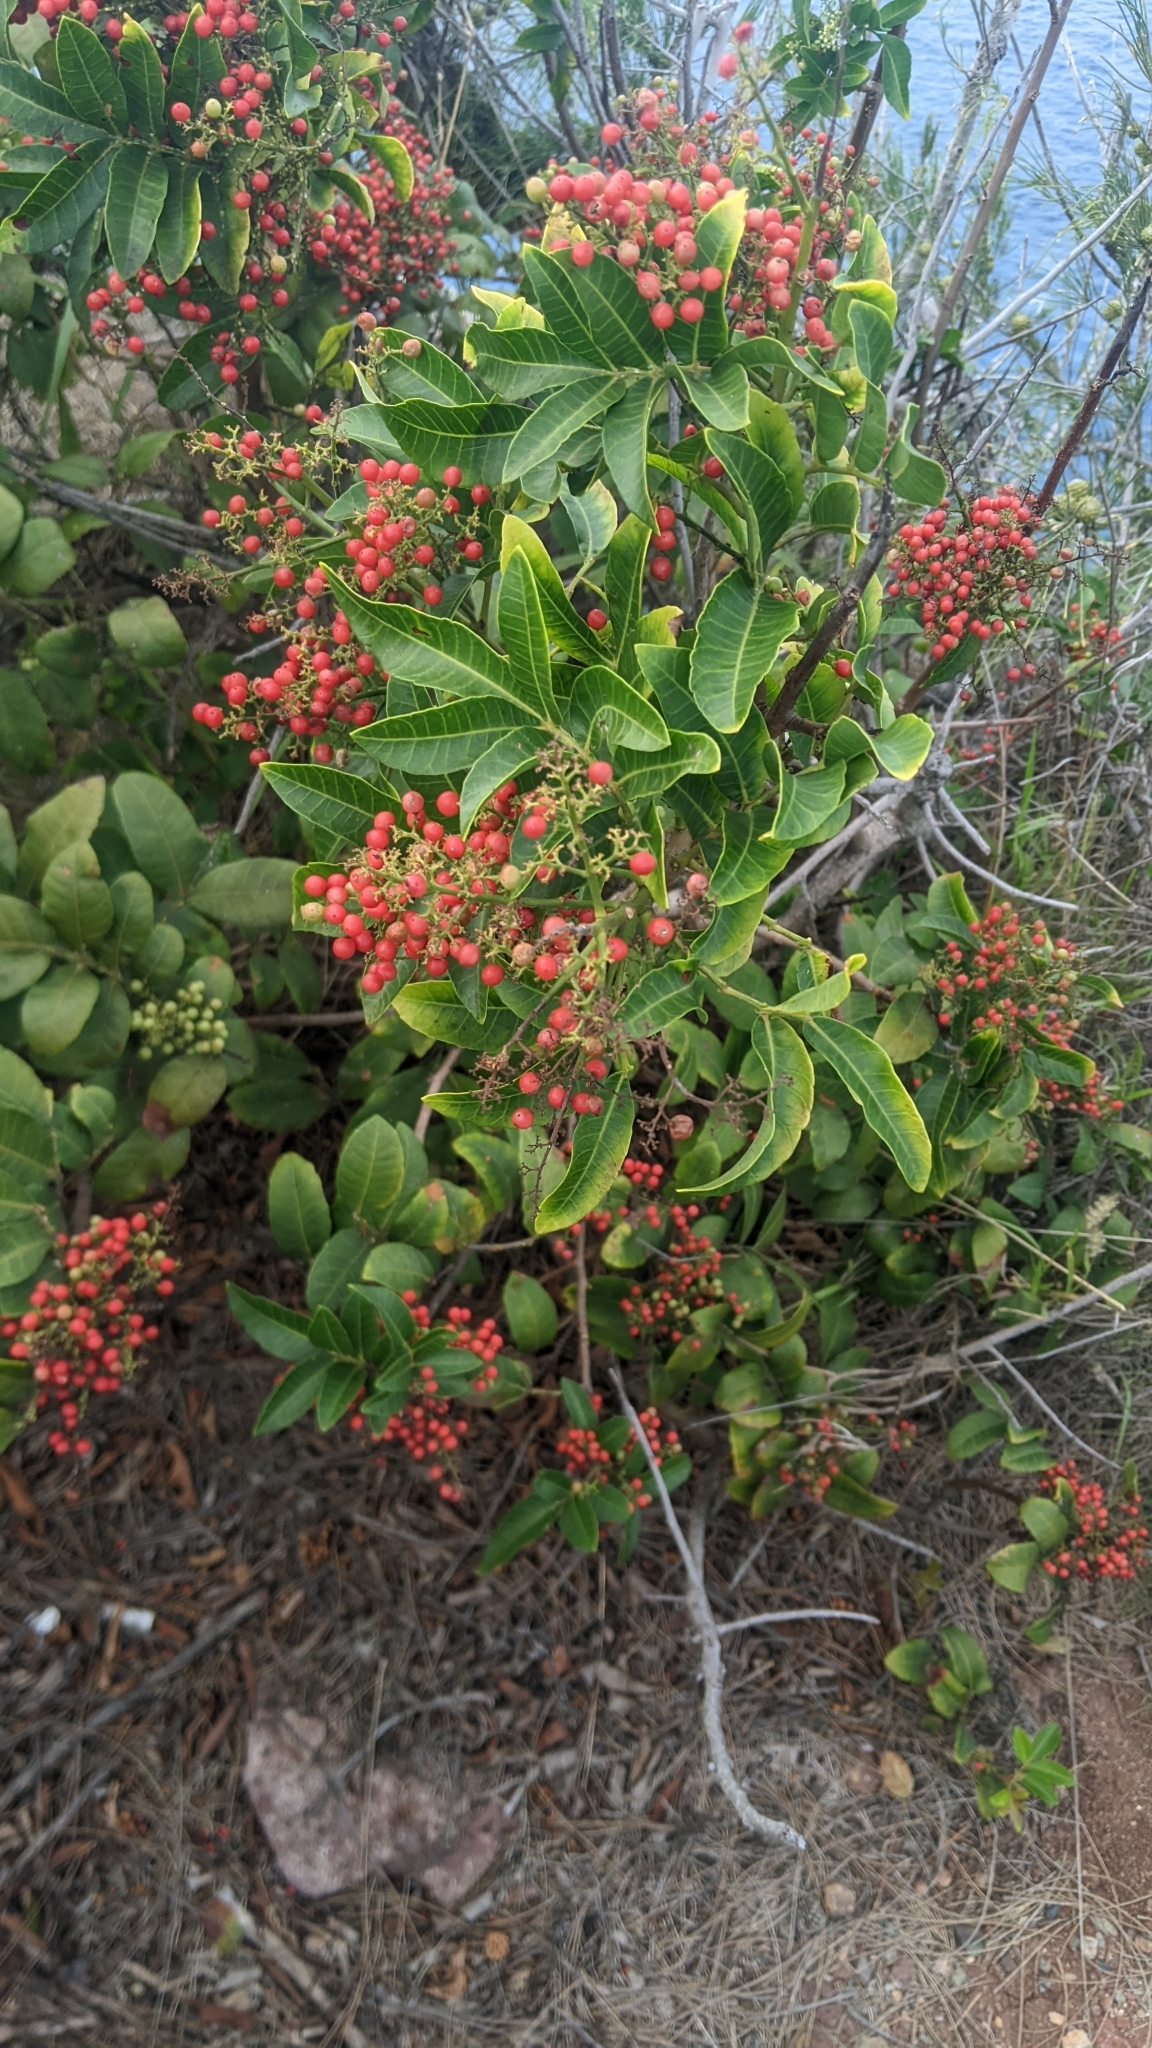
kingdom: Plantae
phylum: Tracheophyta
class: Magnoliopsida
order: Sapindales
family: Anacardiaceae
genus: Schinus
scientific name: Schinus terebinthifolia
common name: Brazilian peppertree
